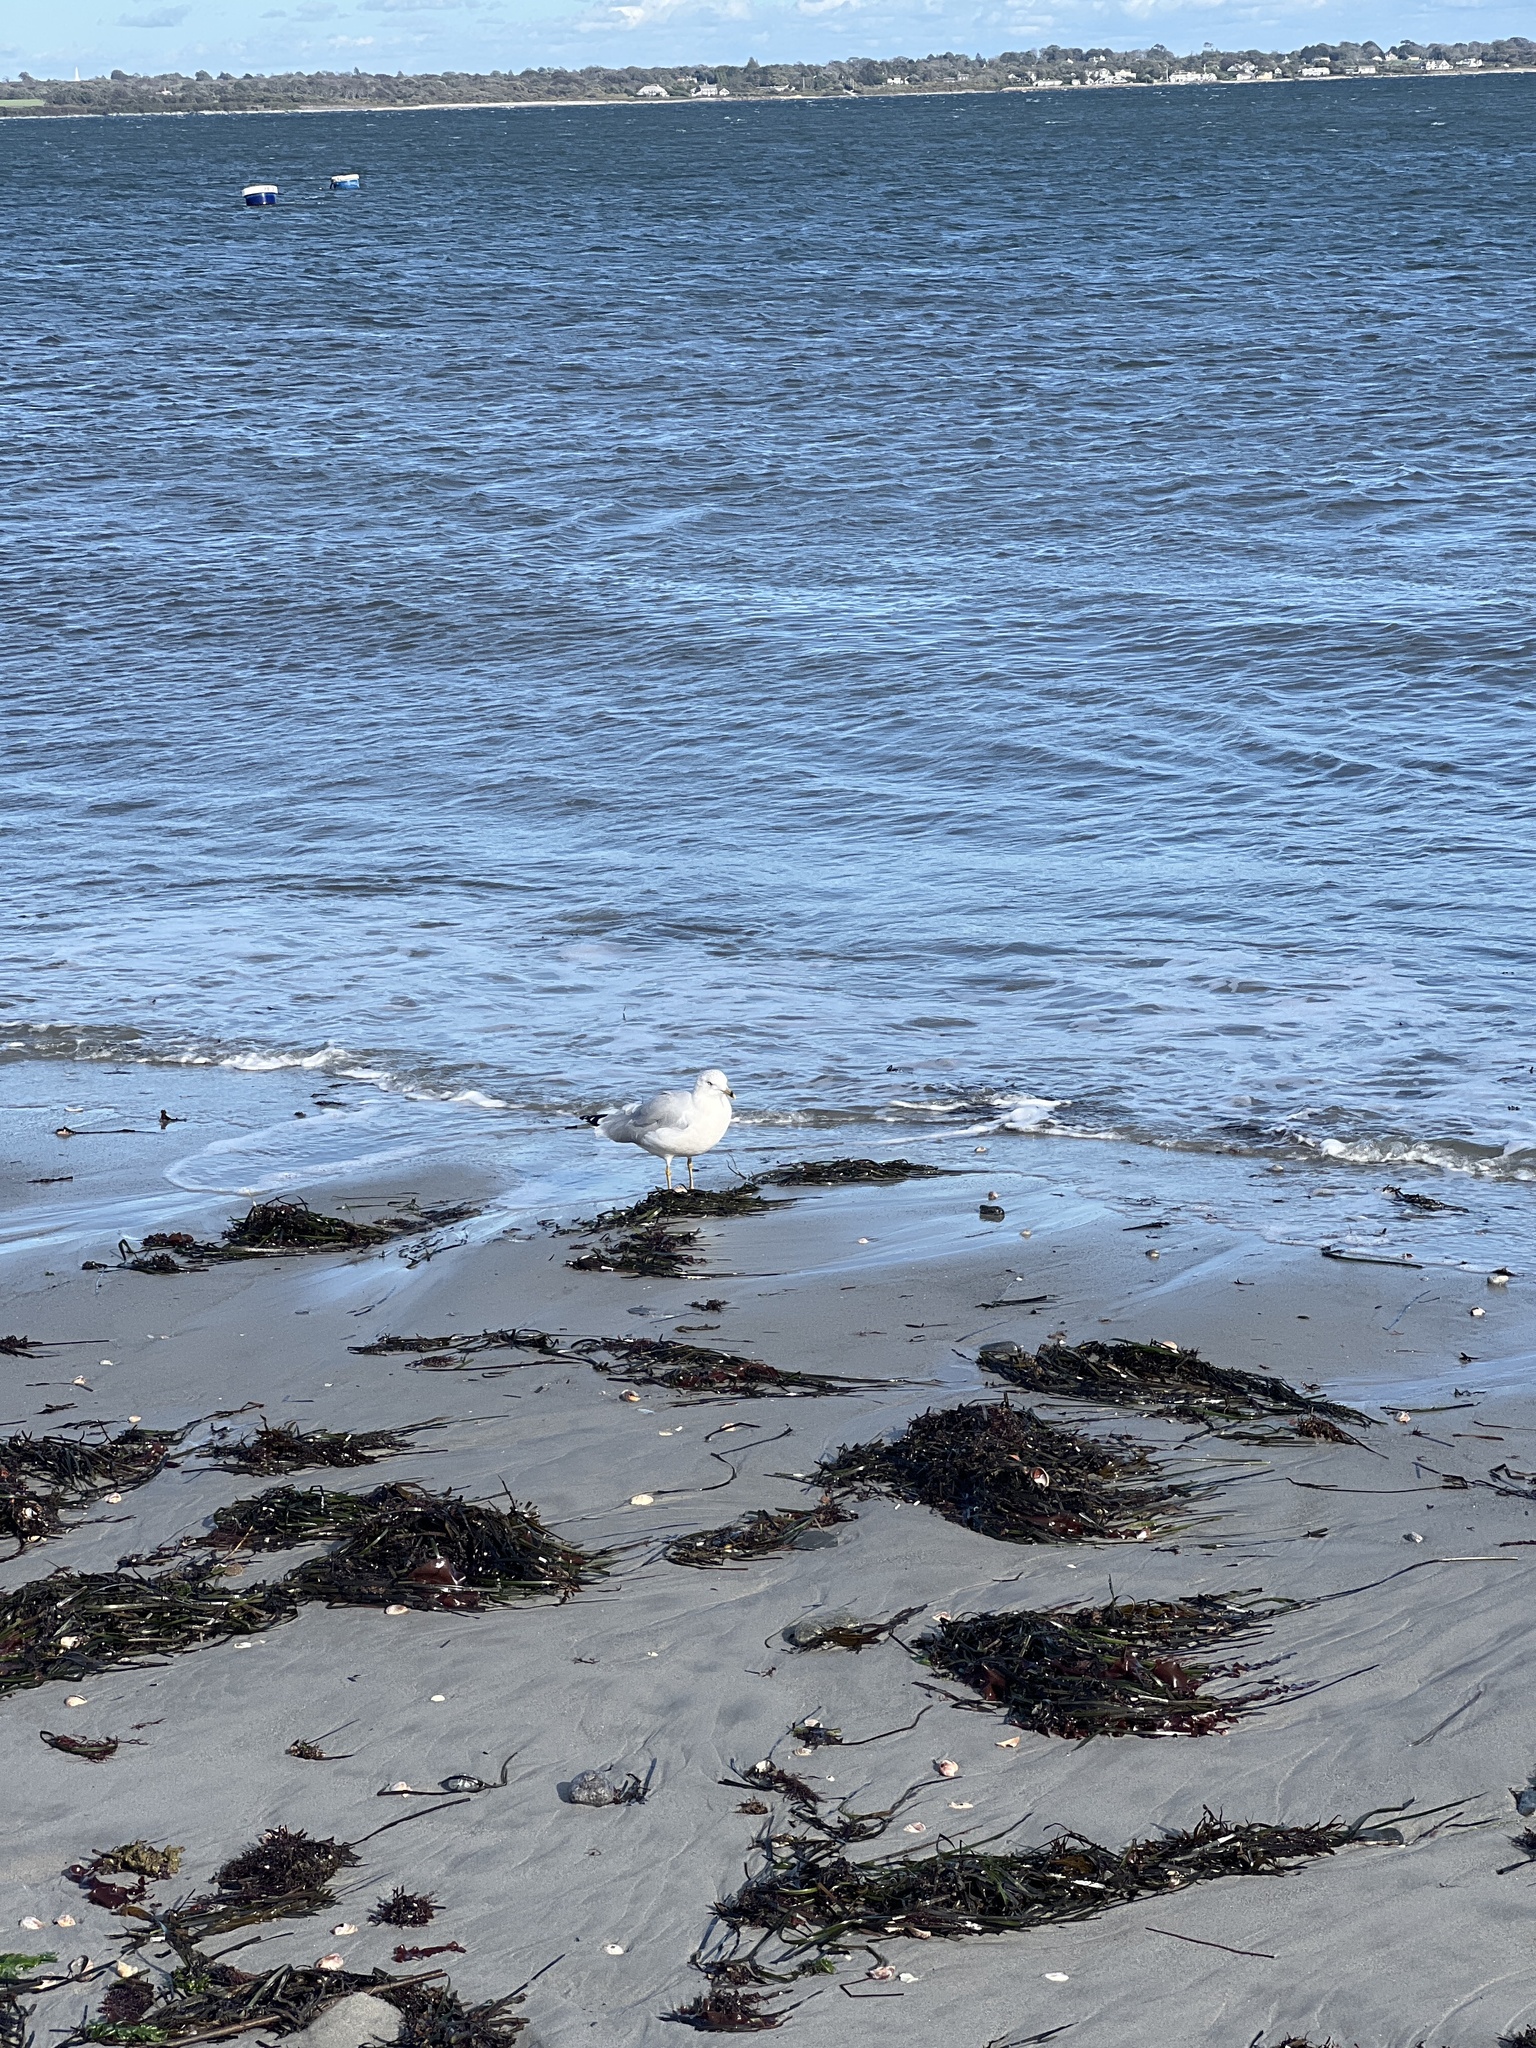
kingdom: Animalia
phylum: Chordata
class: Aves
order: Charadriiformes
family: Laridae
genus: Larus
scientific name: Larus delawarensis
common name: Ring-billed gull
